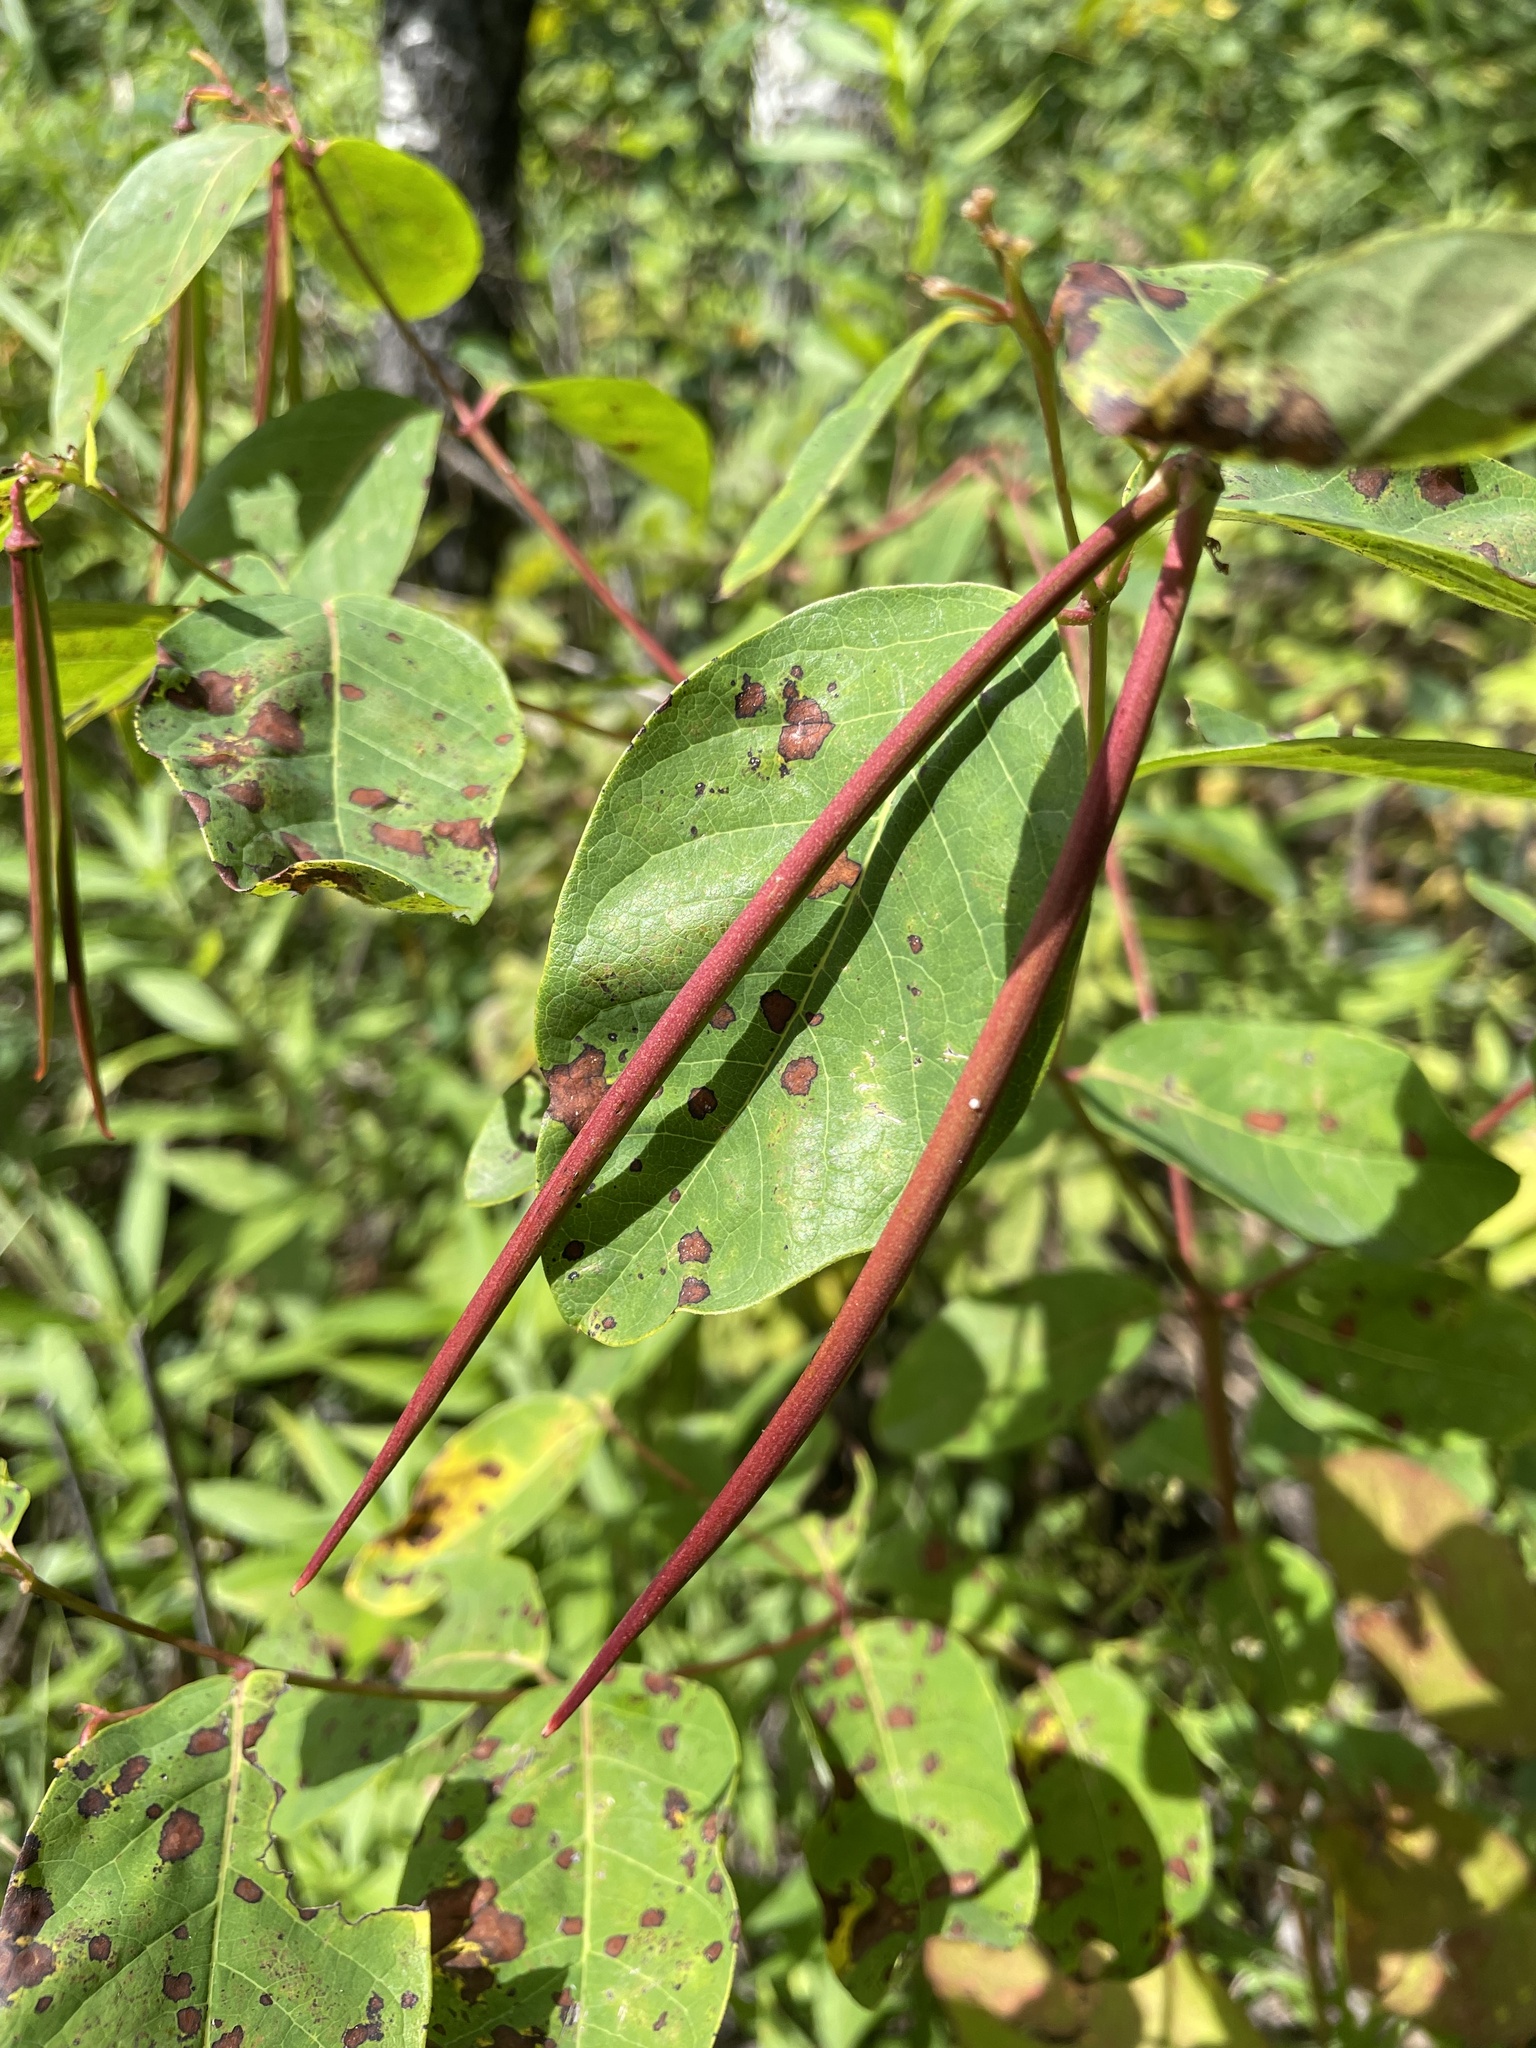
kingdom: Plantae
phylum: Tracheophyta
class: Magnoliopsida
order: Gentianales
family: Apocynaceae
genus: Apocynum
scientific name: Apocynum androsaemifolium
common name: Spreading dogbane
